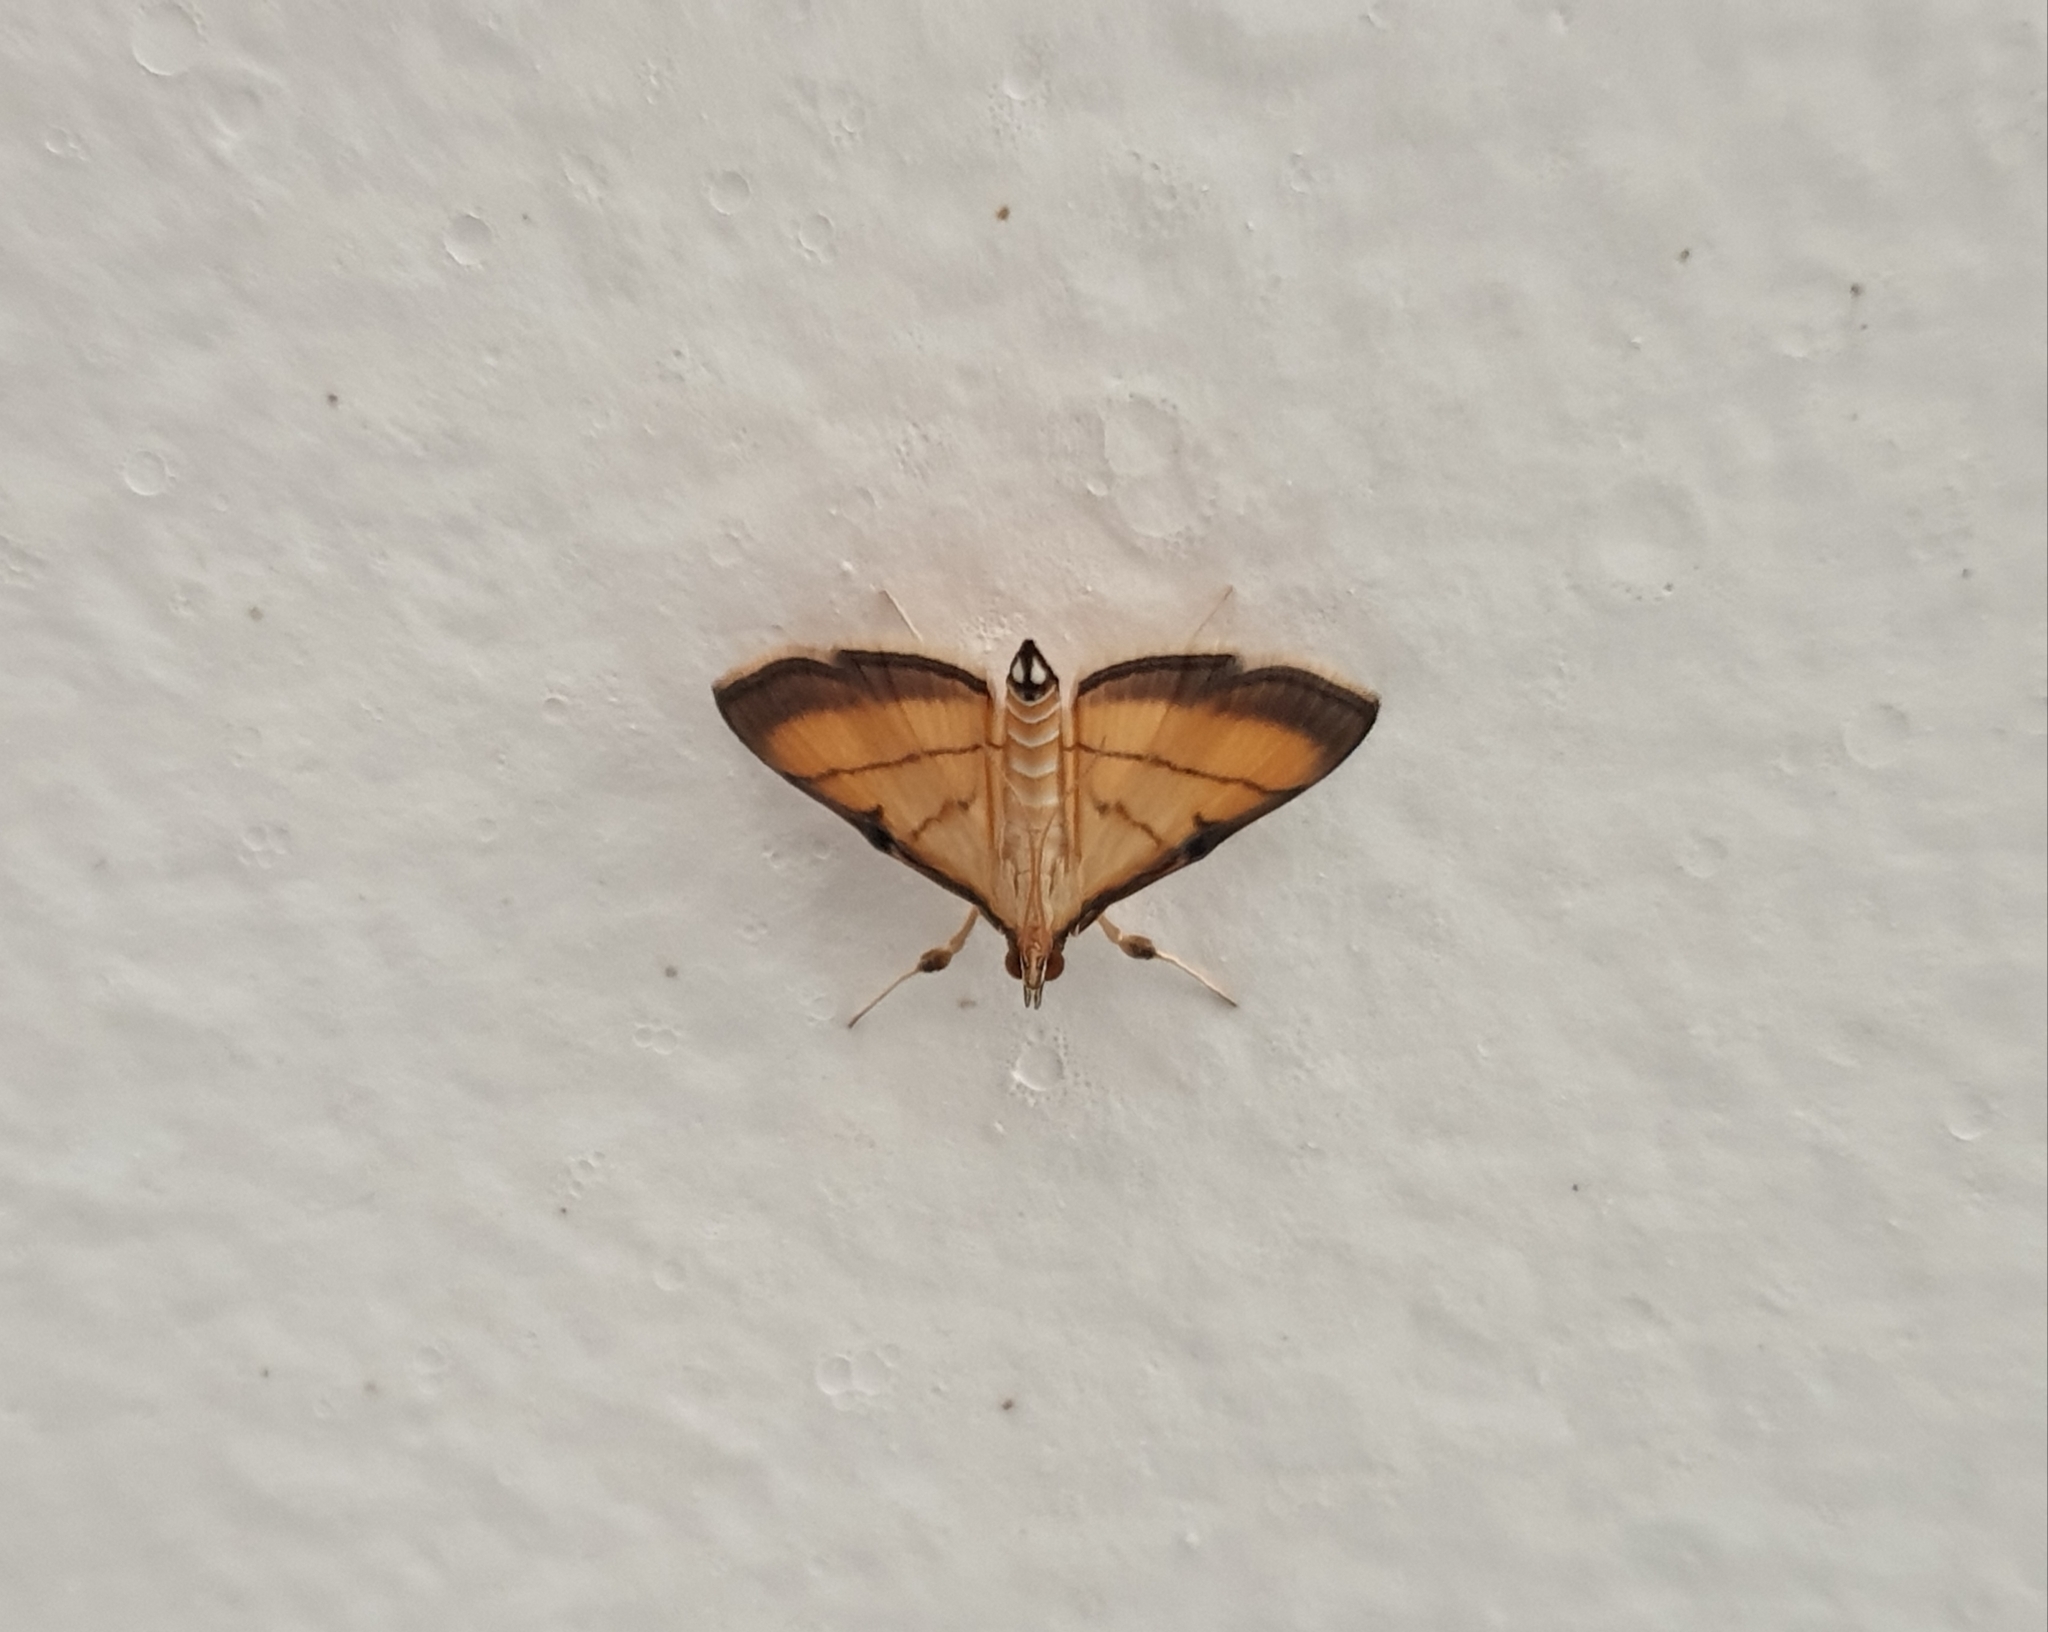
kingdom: Animalia
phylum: Arthropoda
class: Insecta
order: Lepidoptera
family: Crambidae
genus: Cnaphalocrocis
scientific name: Cnaphalocrocis medinalis
